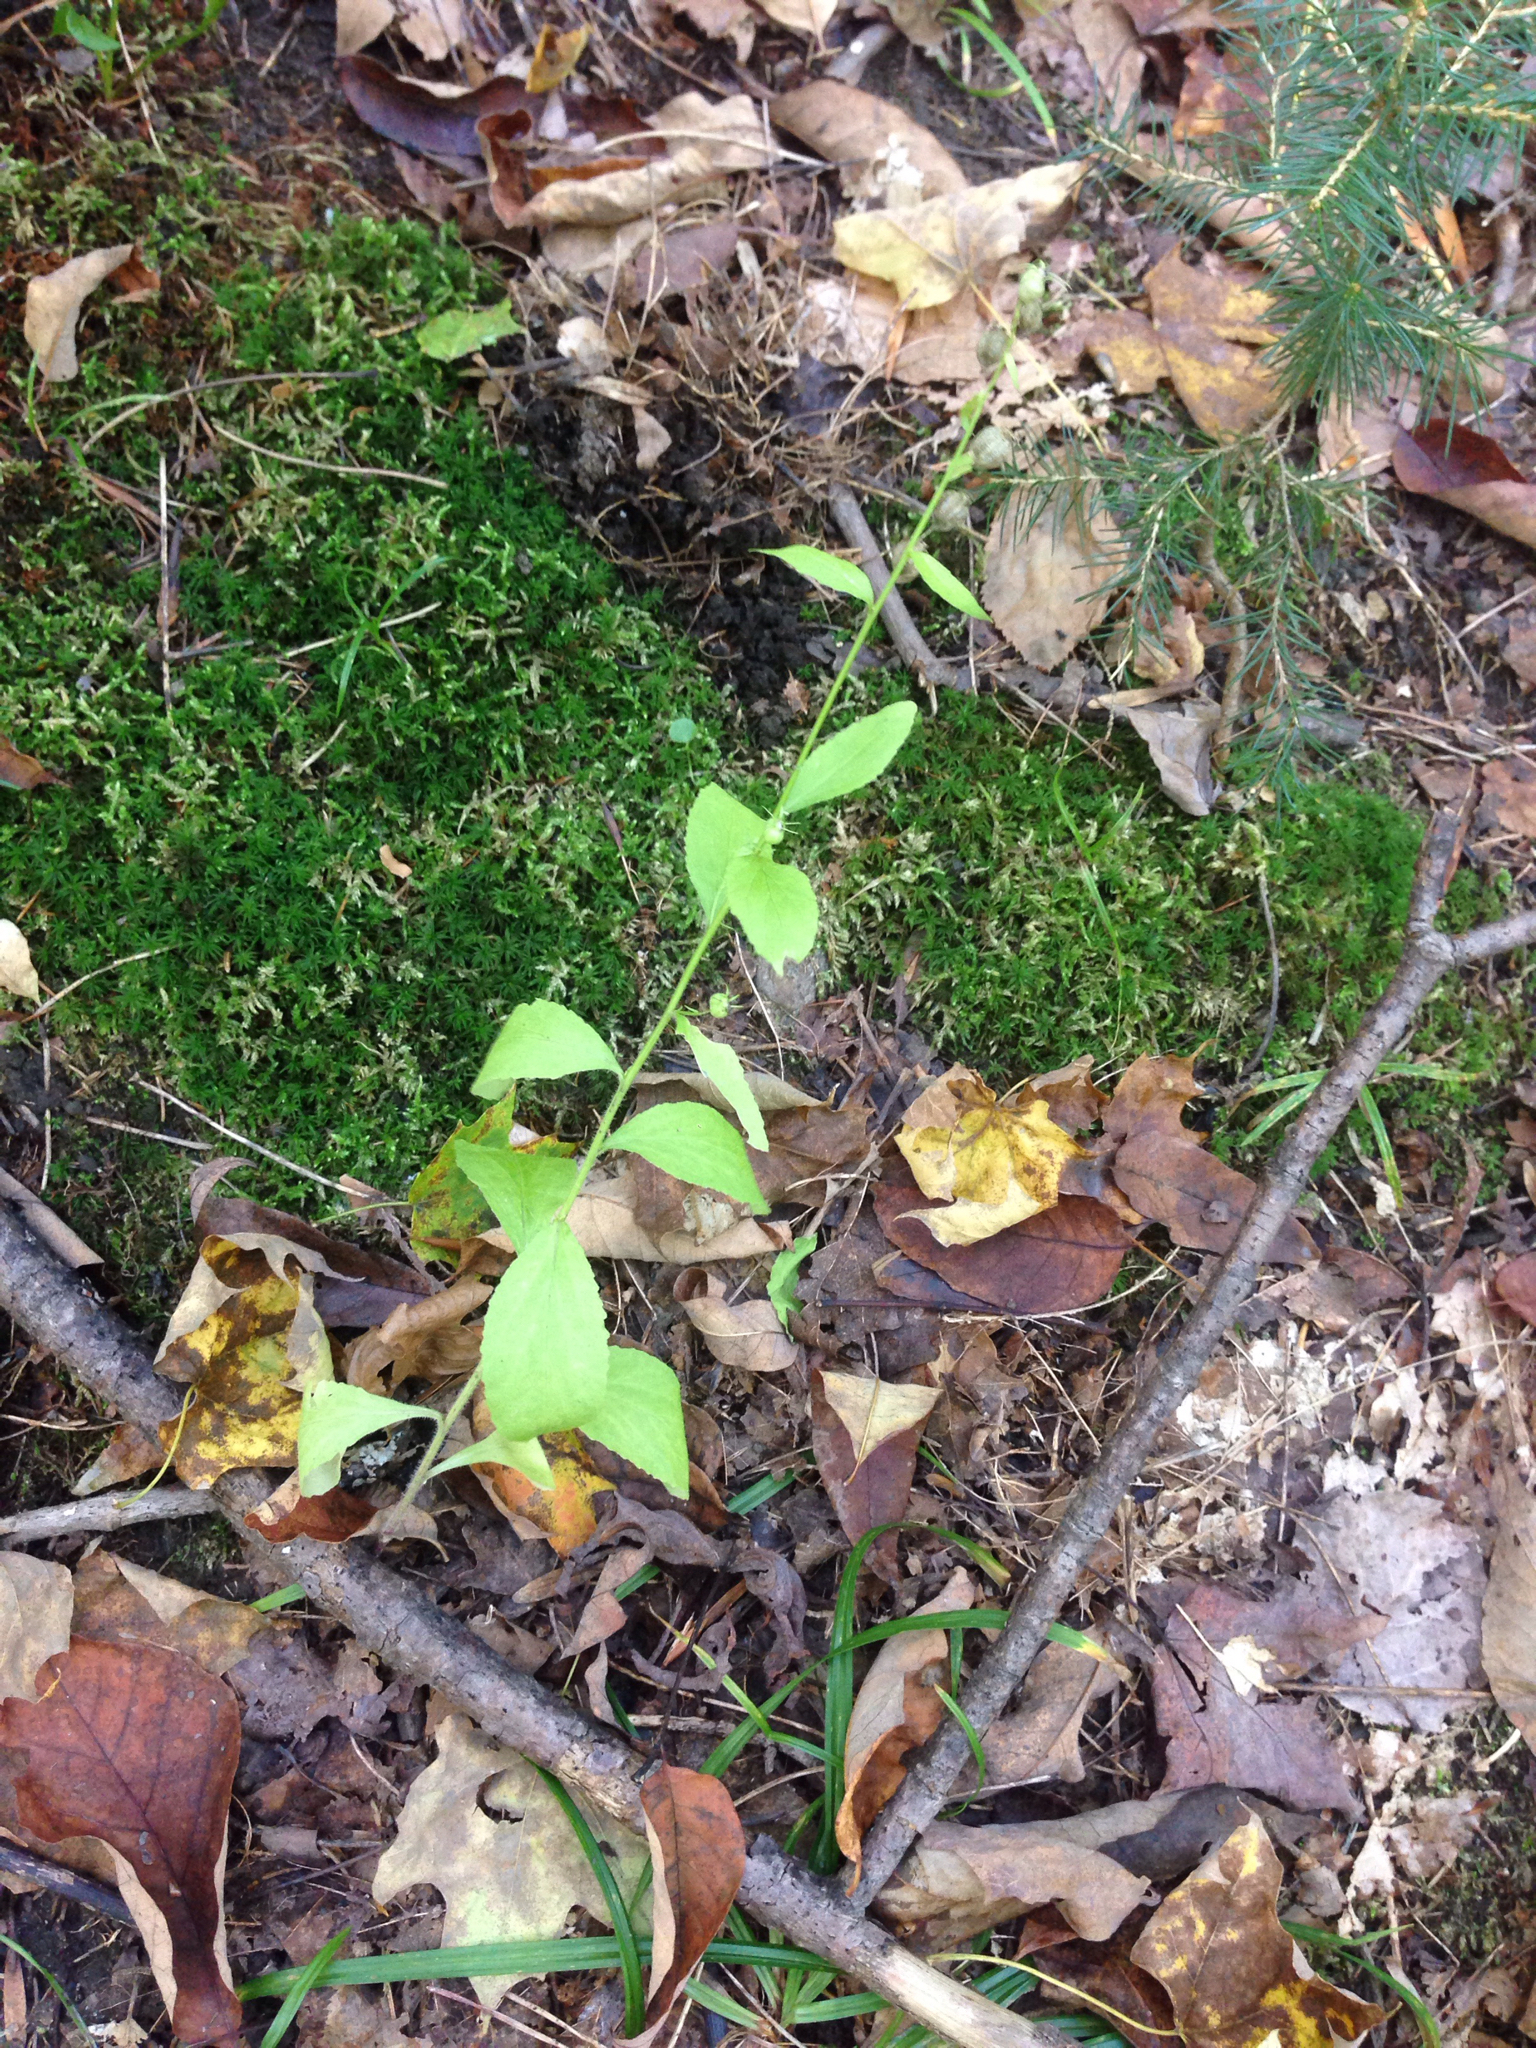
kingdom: Plantae
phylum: Tracheophyta
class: Magnoliopsida
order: Asterales
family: Campanulaceae
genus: Lobelia
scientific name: Lobelia inflata
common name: Indian tobacco
